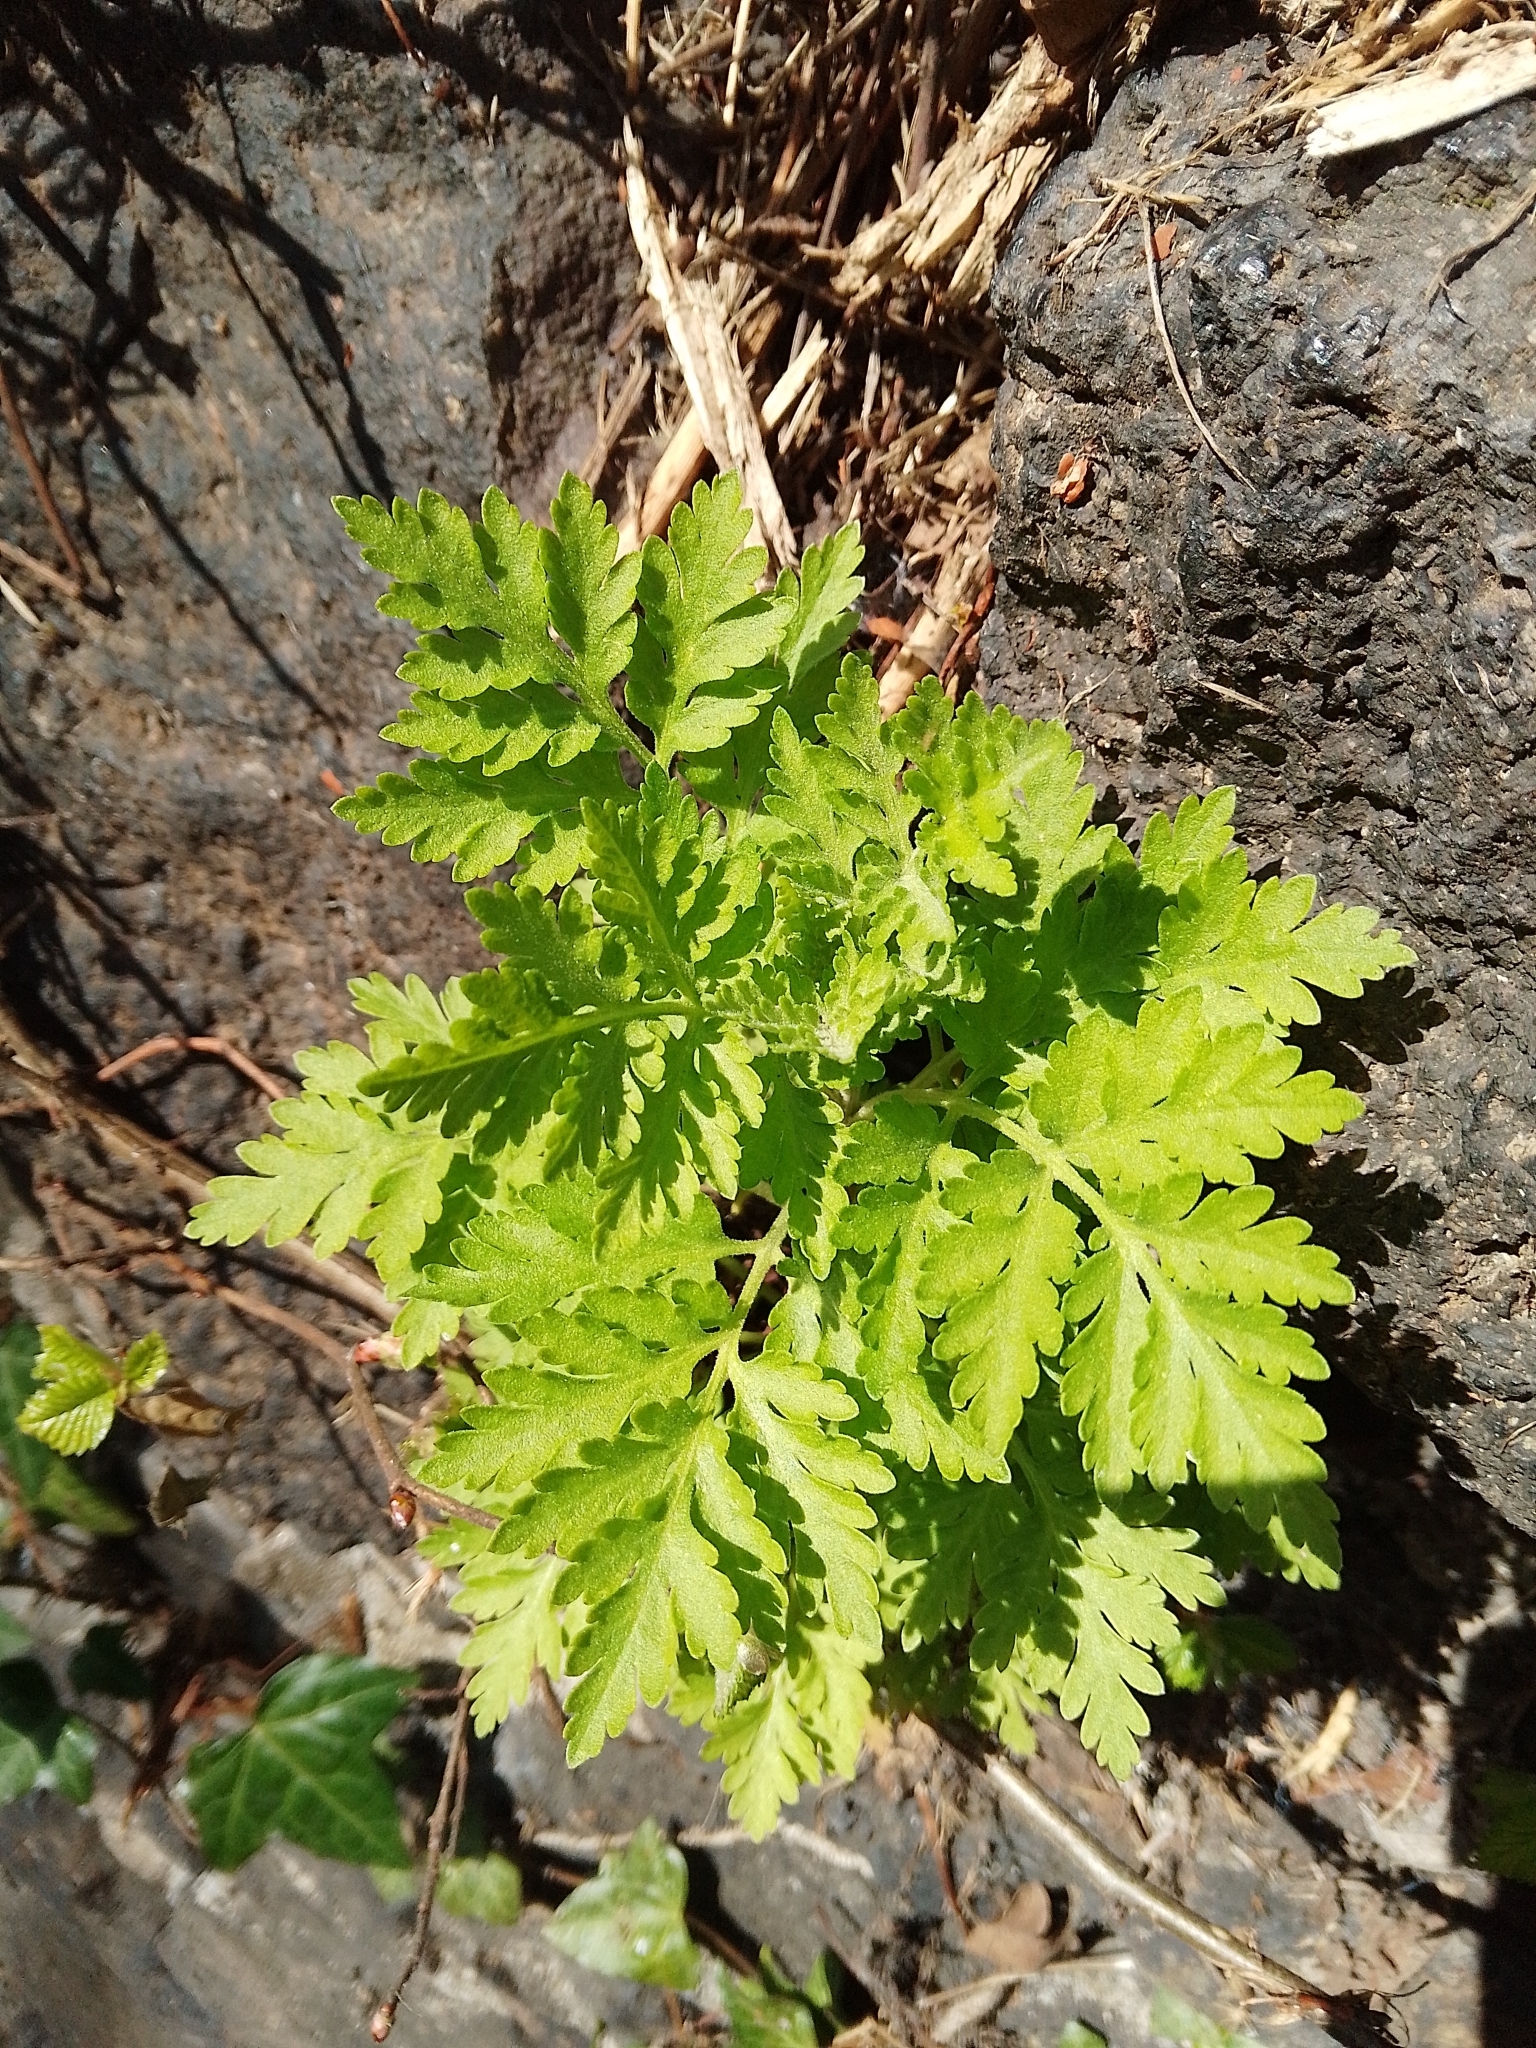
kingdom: Plantae
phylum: Tracheophyta
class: Magnoliopsida
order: Asterales
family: Asteraceae
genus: Tanacetum
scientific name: Tanacetum parthenium
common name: Feverfew
